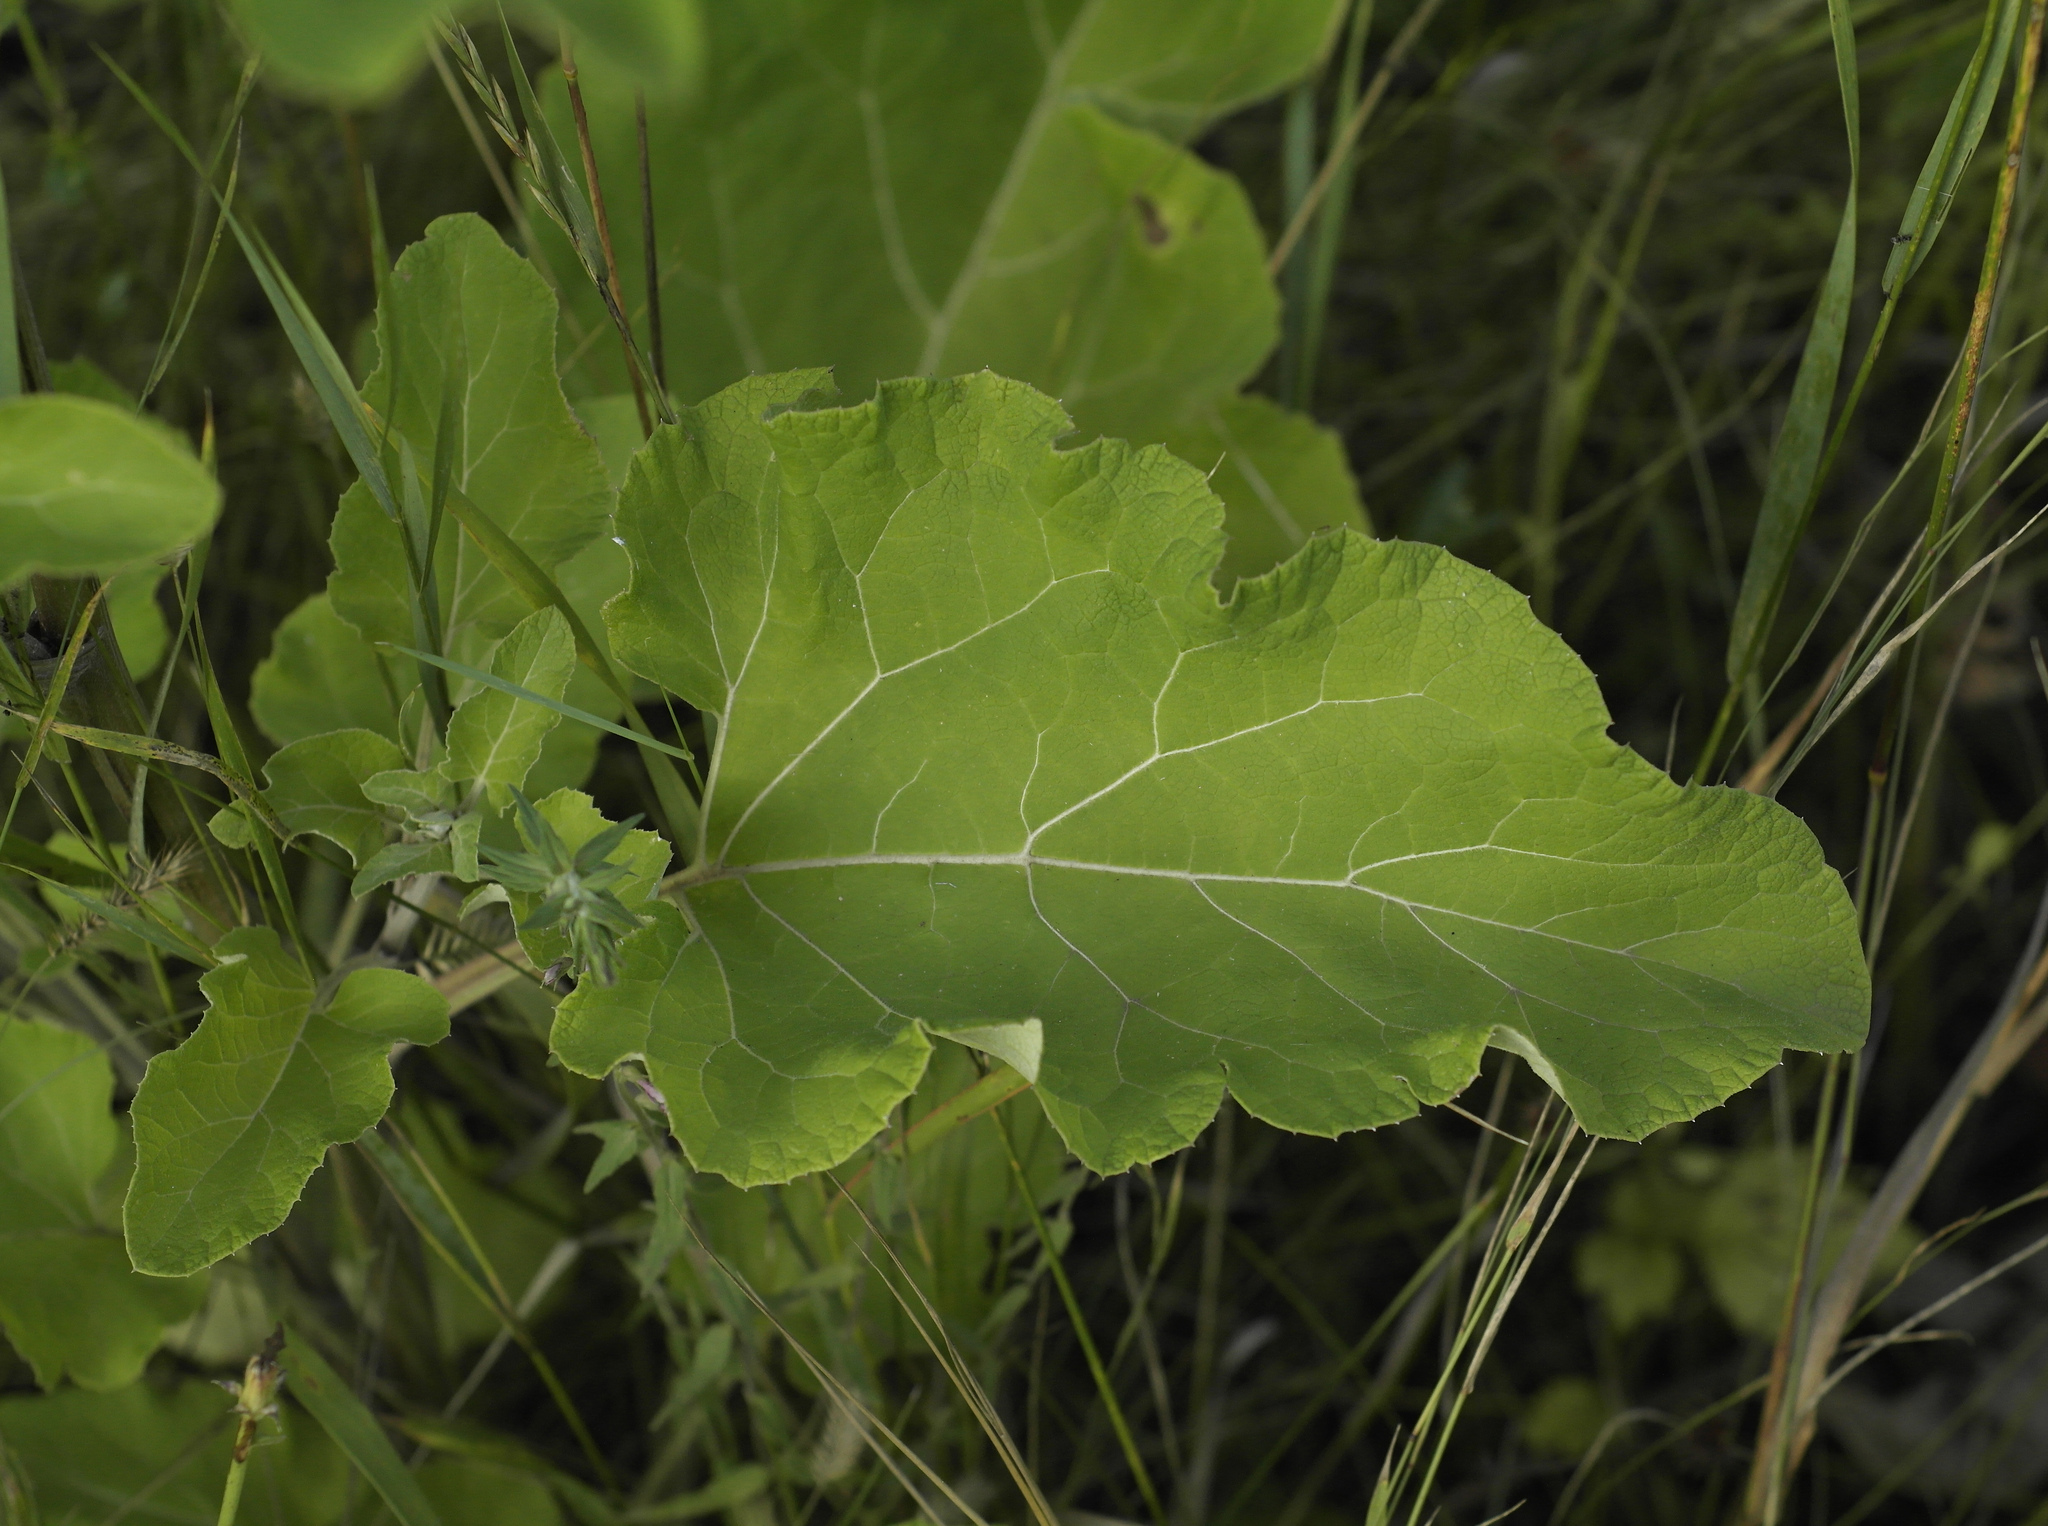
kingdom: Plantae
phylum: Tracheophyta
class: Magnoliopsida
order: Asterales
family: Asteraceae
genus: Arctium
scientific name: Arctium tomentosum
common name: Woolly burdock
